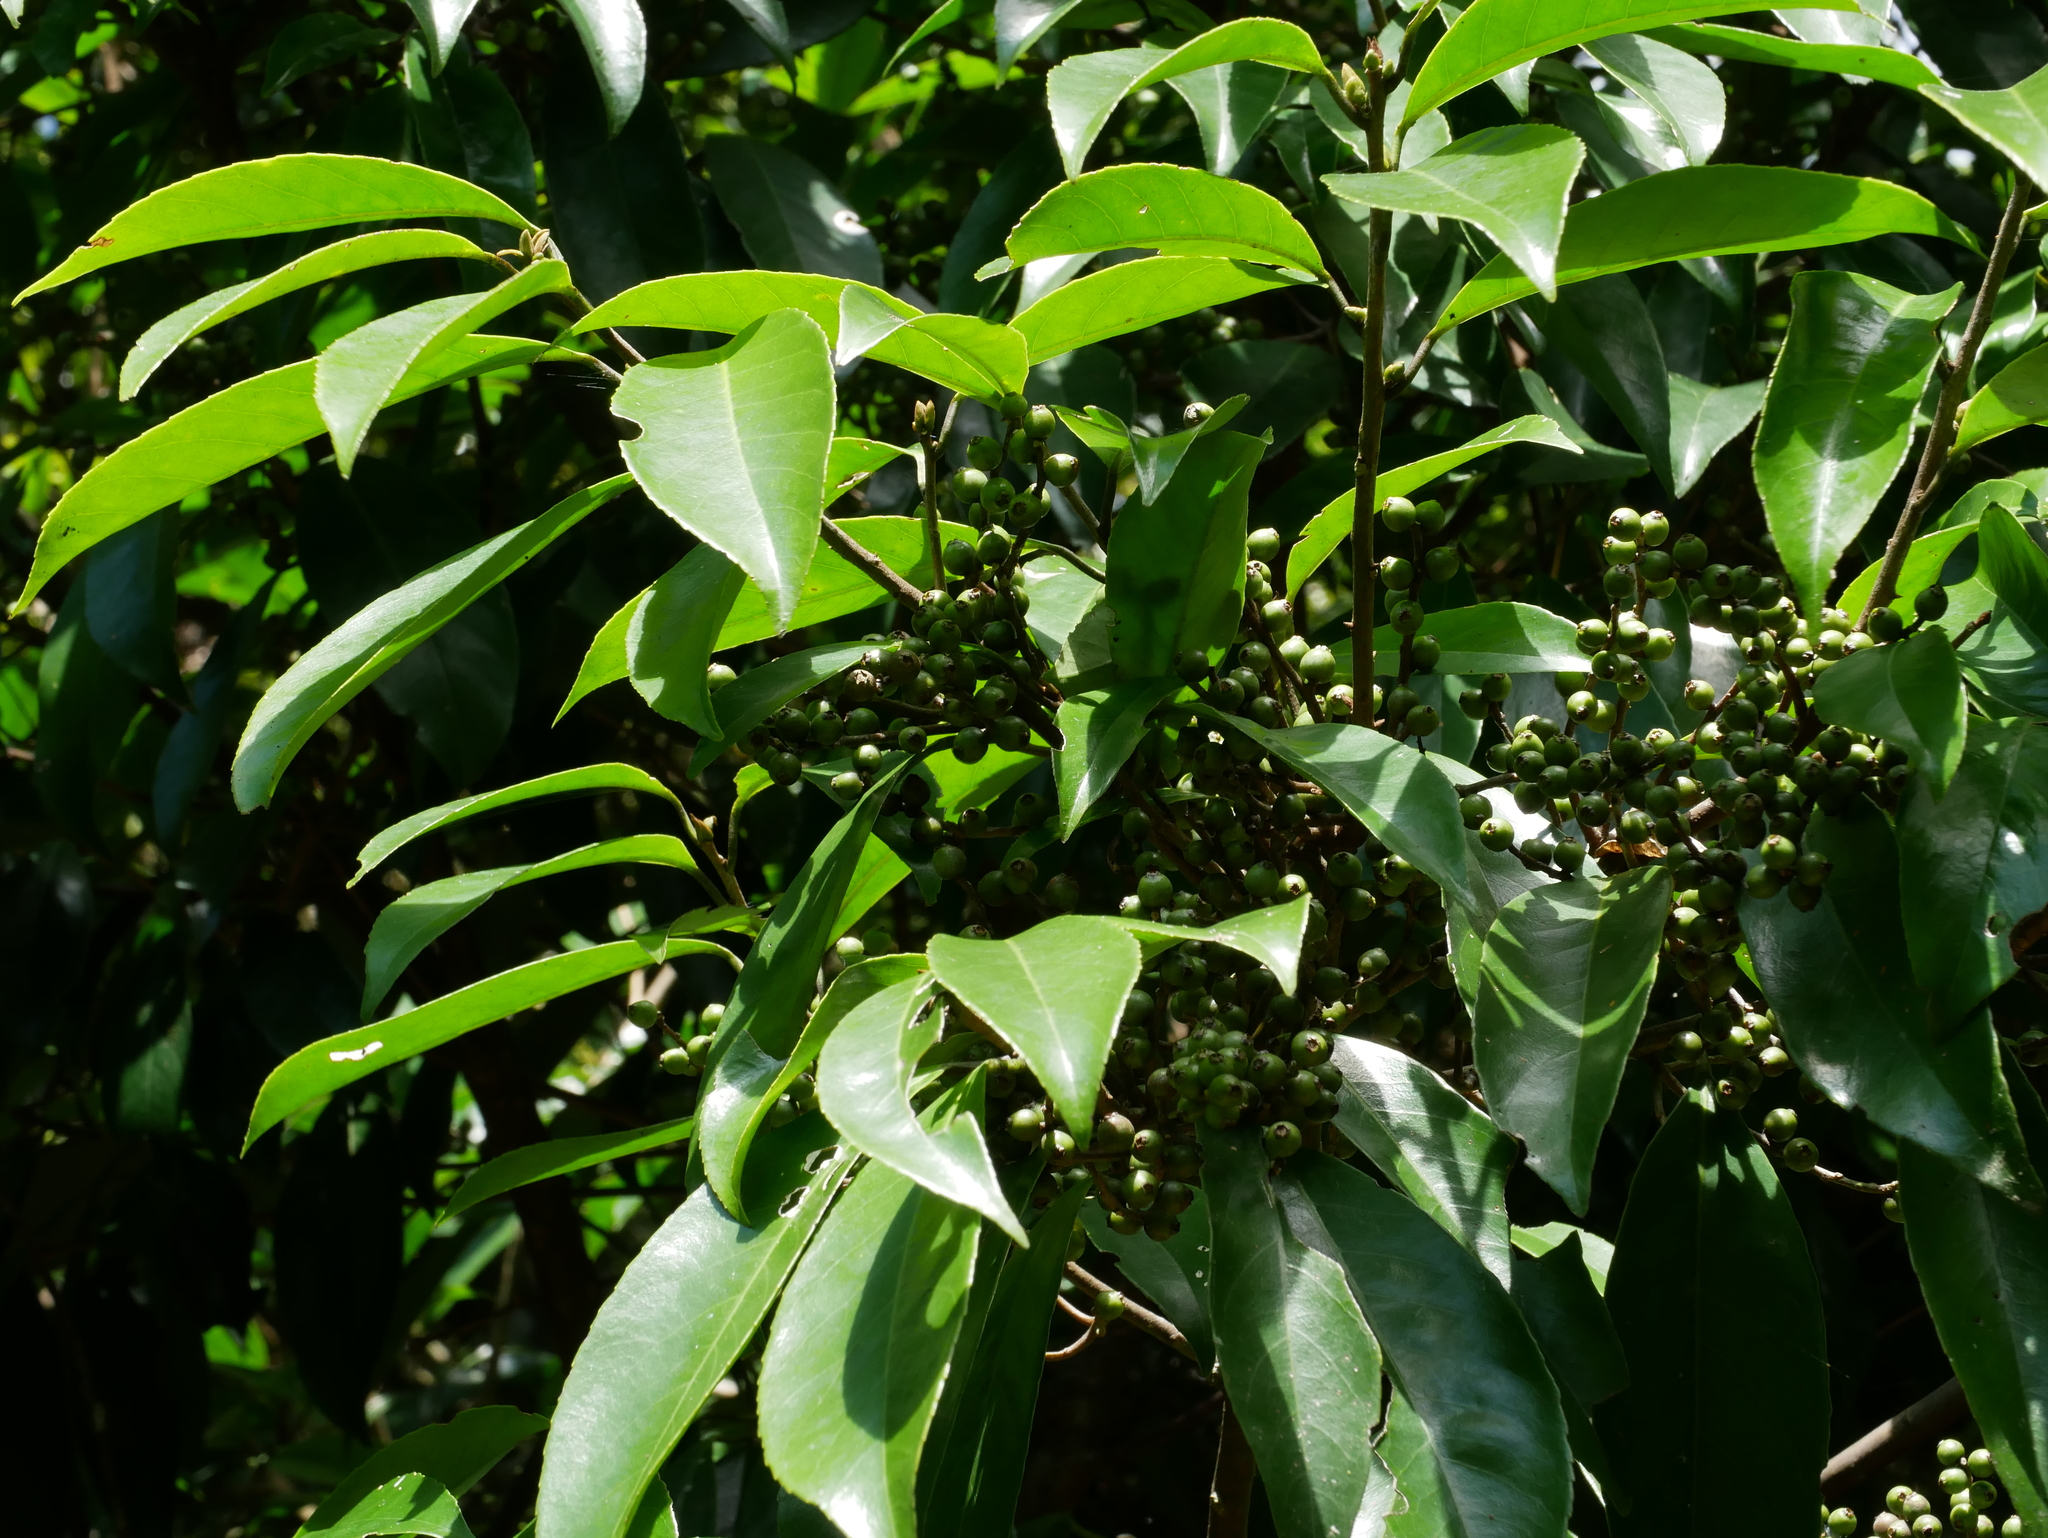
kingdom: Plantae
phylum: Tracheophyta
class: Magnoliopsida
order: Ericales
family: Symplocaceae
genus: Symplocos
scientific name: Symplocos acuminata
